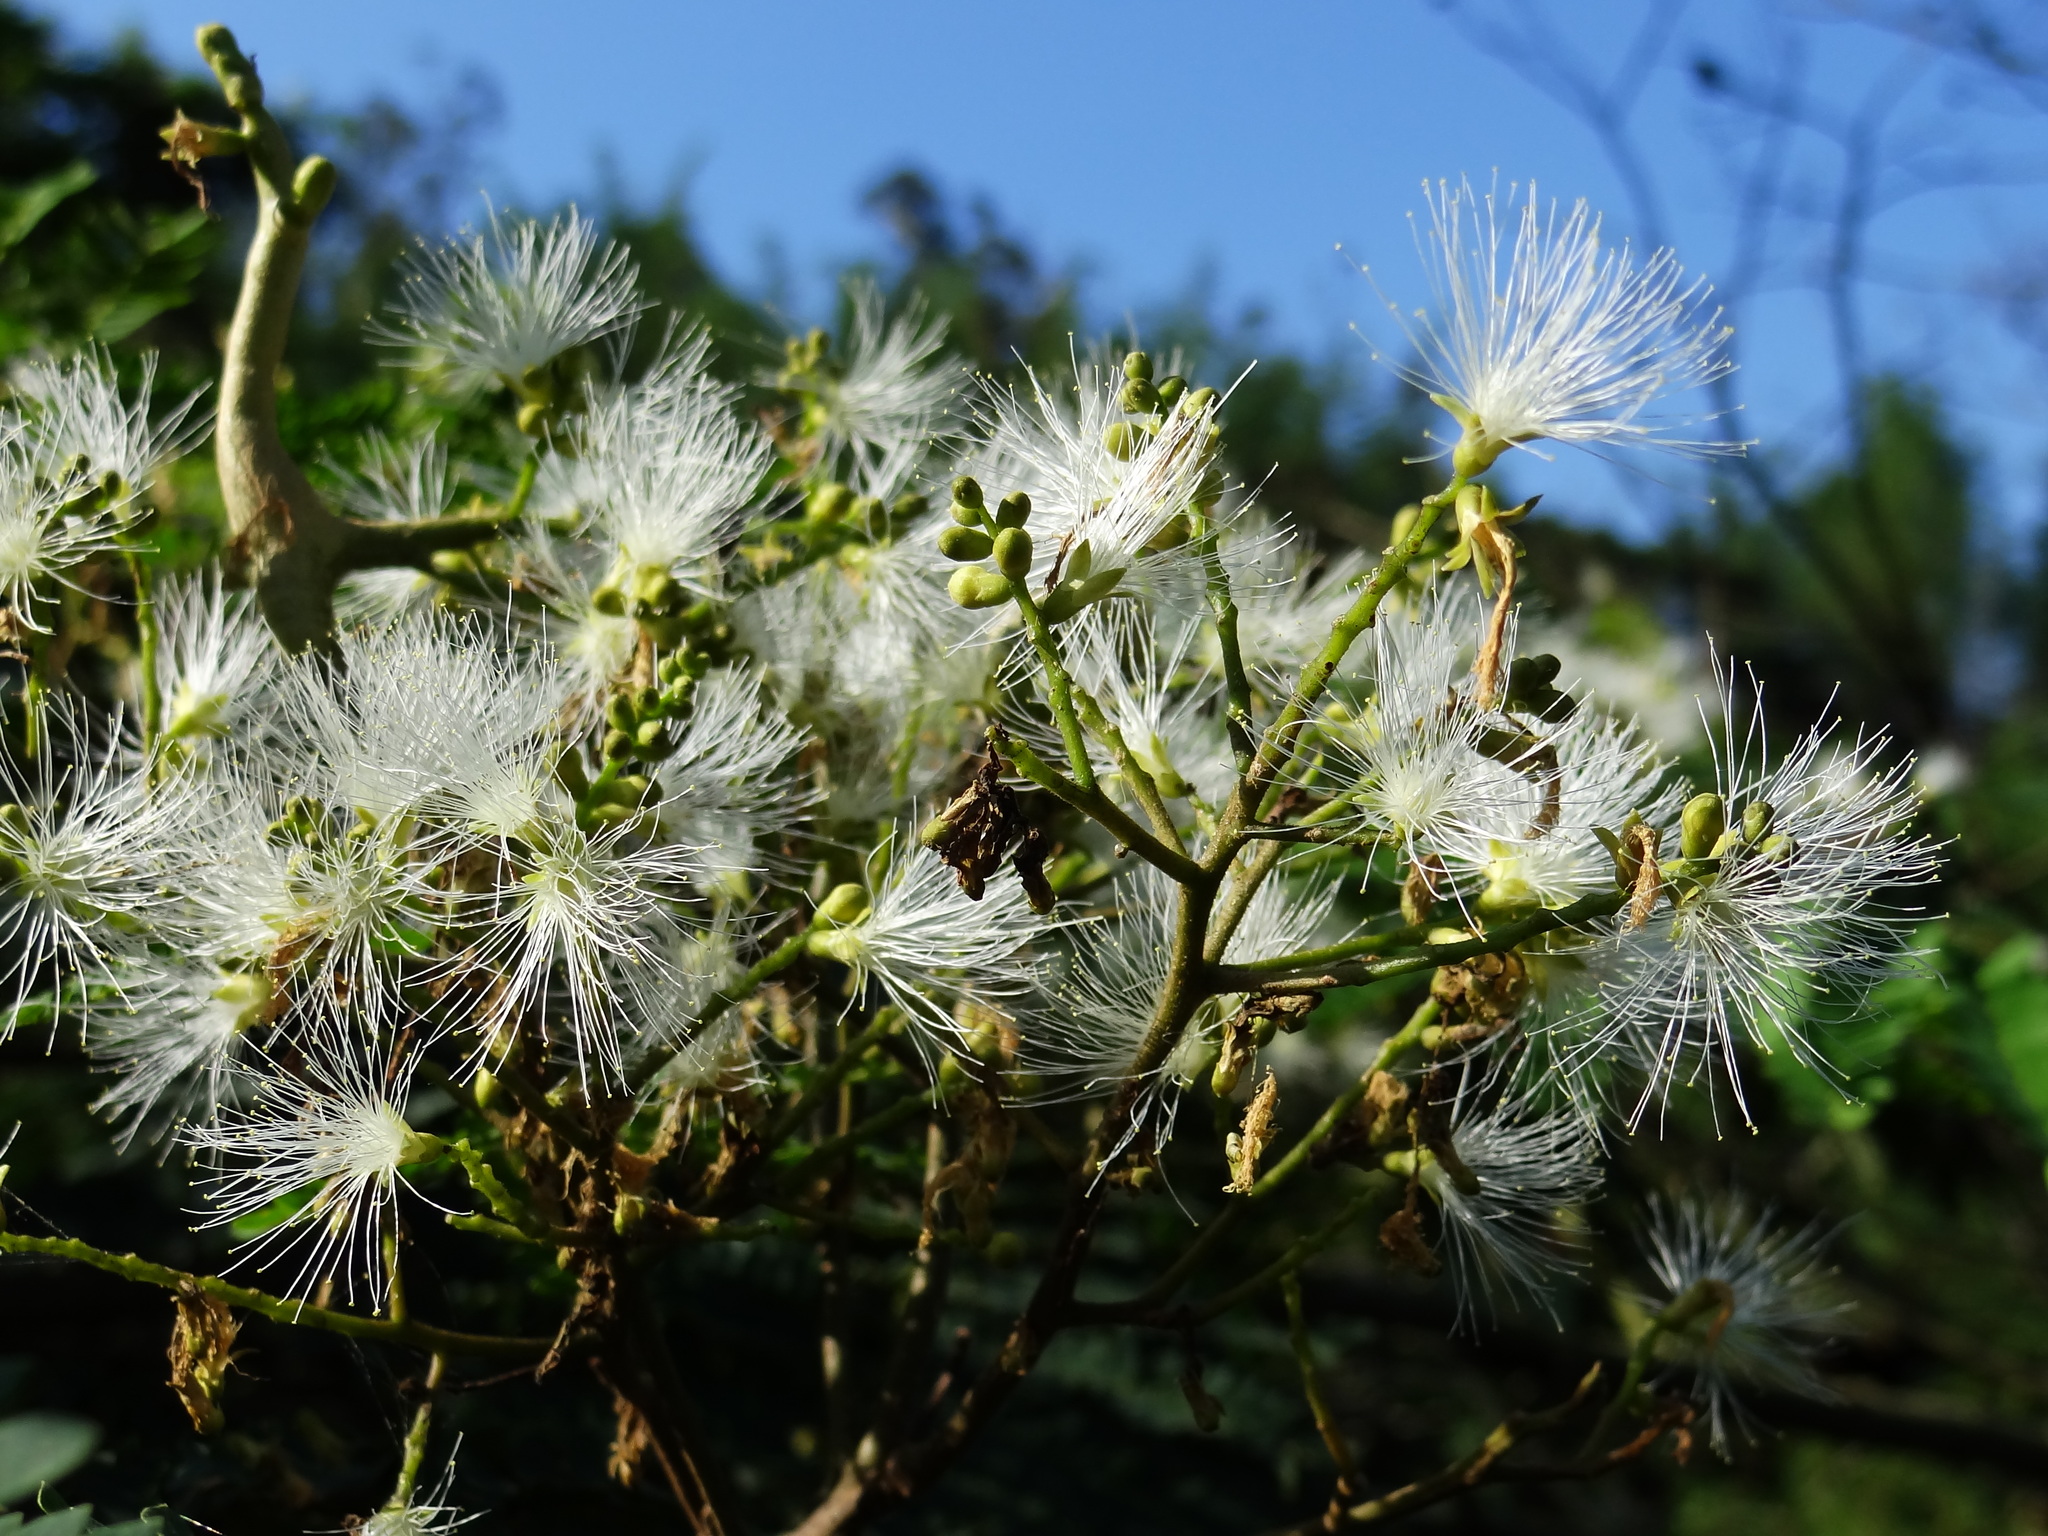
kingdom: Plantae
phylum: Tracheophyta
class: Magnoliopsida
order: Fabales
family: Fabaceae
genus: Falcataria
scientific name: Falcataria falcata
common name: Moluccan albizia
